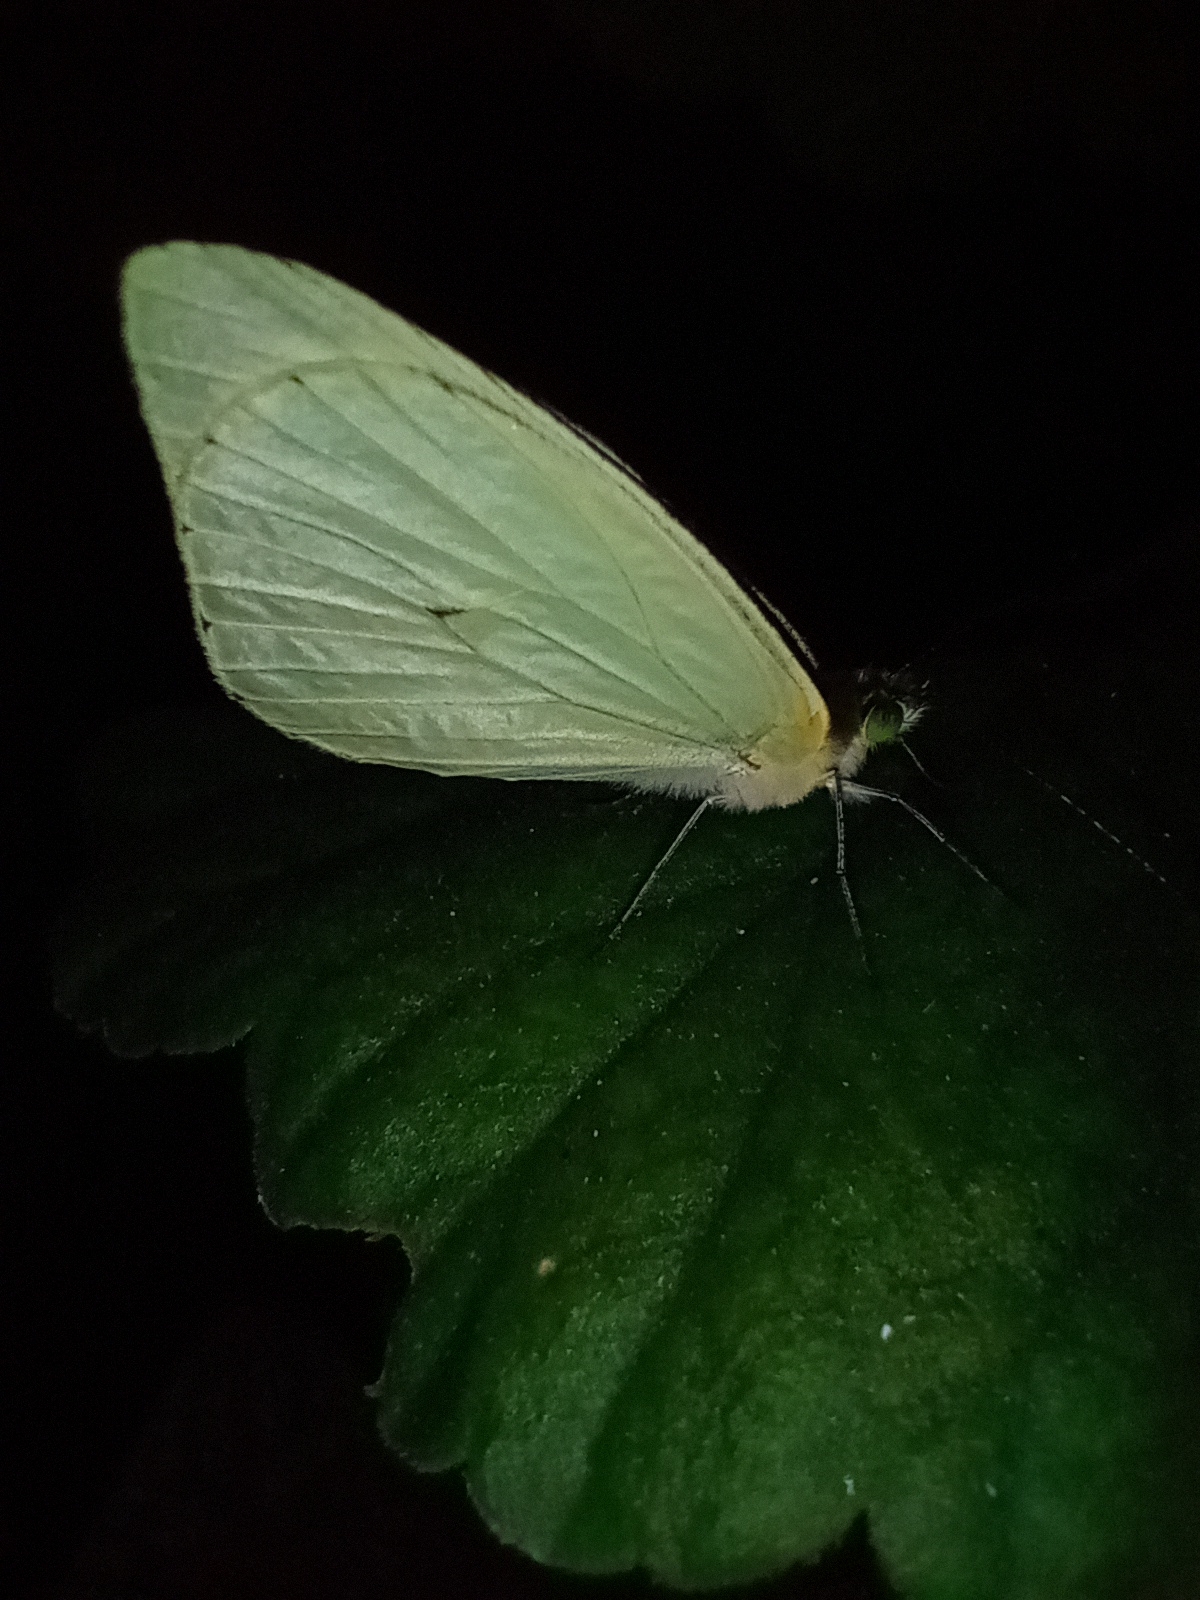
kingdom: Animalia
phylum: Arthropoda
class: Insecta
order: Lepidoptera
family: Pieridae
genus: Leptophobia
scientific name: Leptophobia aripa
